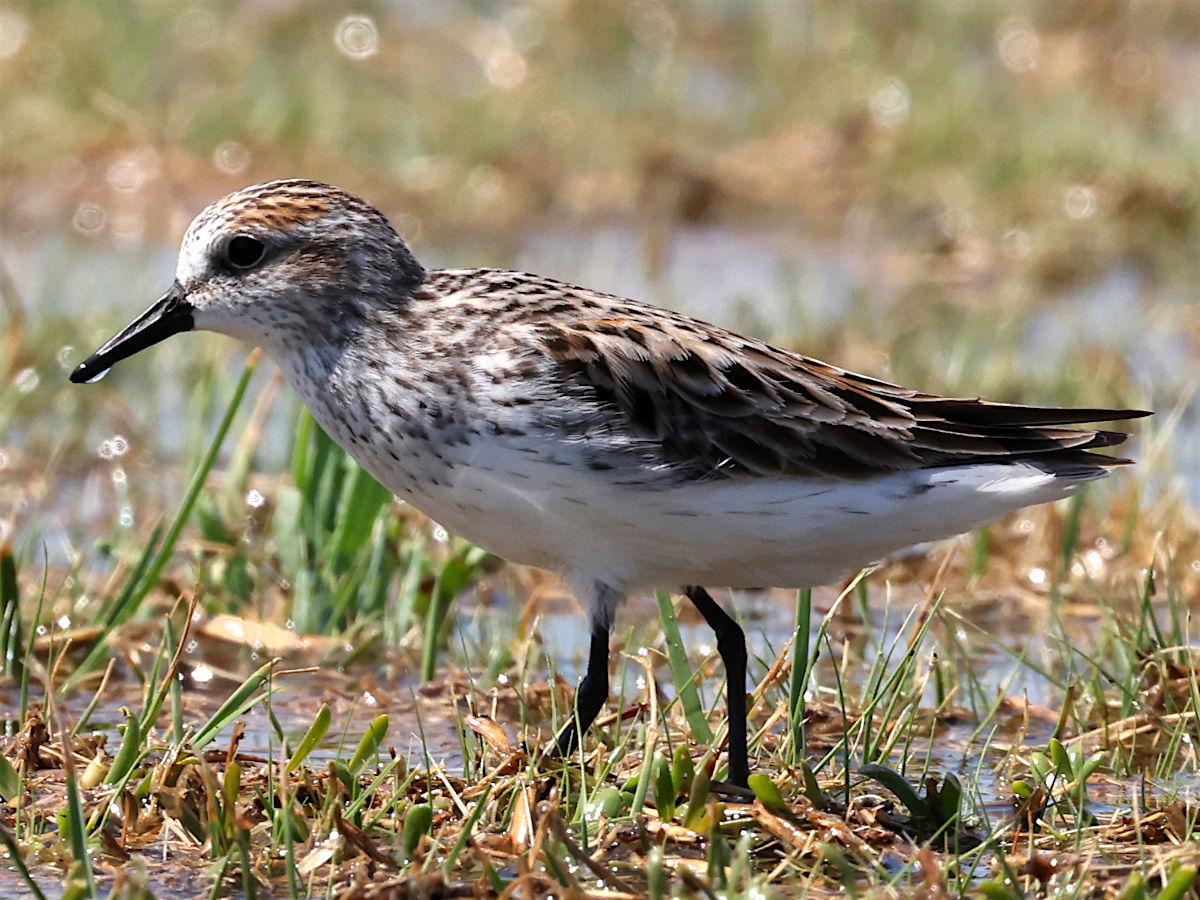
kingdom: Animalia
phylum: Chordata
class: Aves
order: Charadriiformes
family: Scolopacidae
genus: Calidris
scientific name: Calidris pusilla
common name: Semipalmated sandpiper
